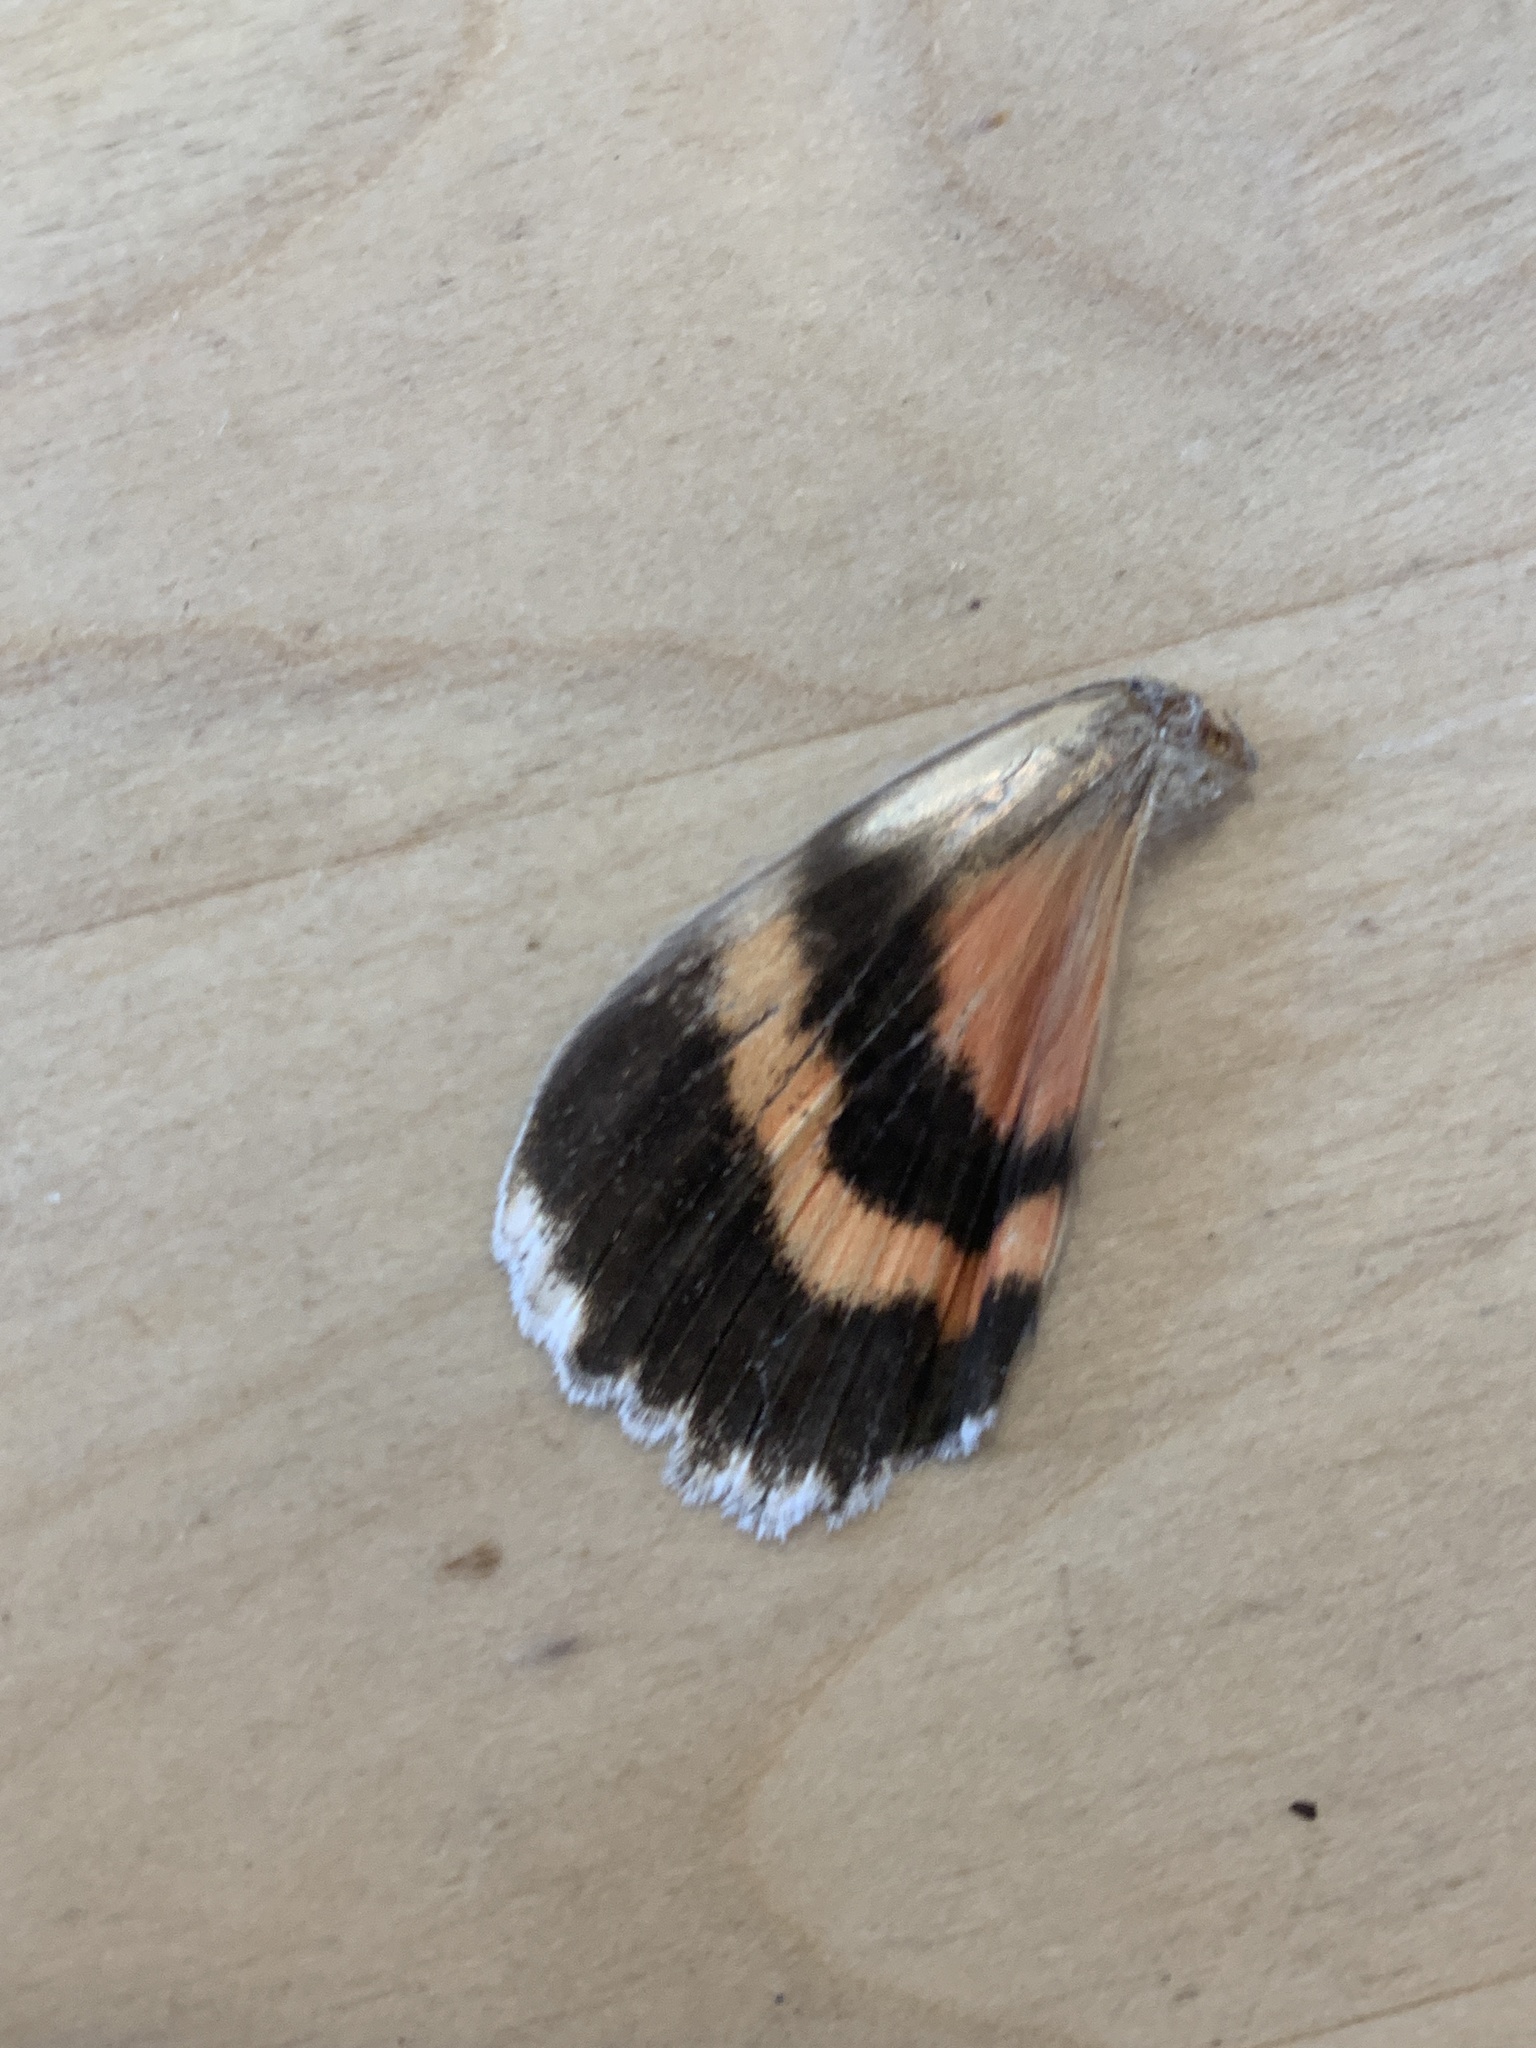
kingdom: Animalia
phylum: Arthropoda
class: Insecta
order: Lepidoptera
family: Erebidae
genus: Catocala
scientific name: Catocala unijuga
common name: Once-married underwing
